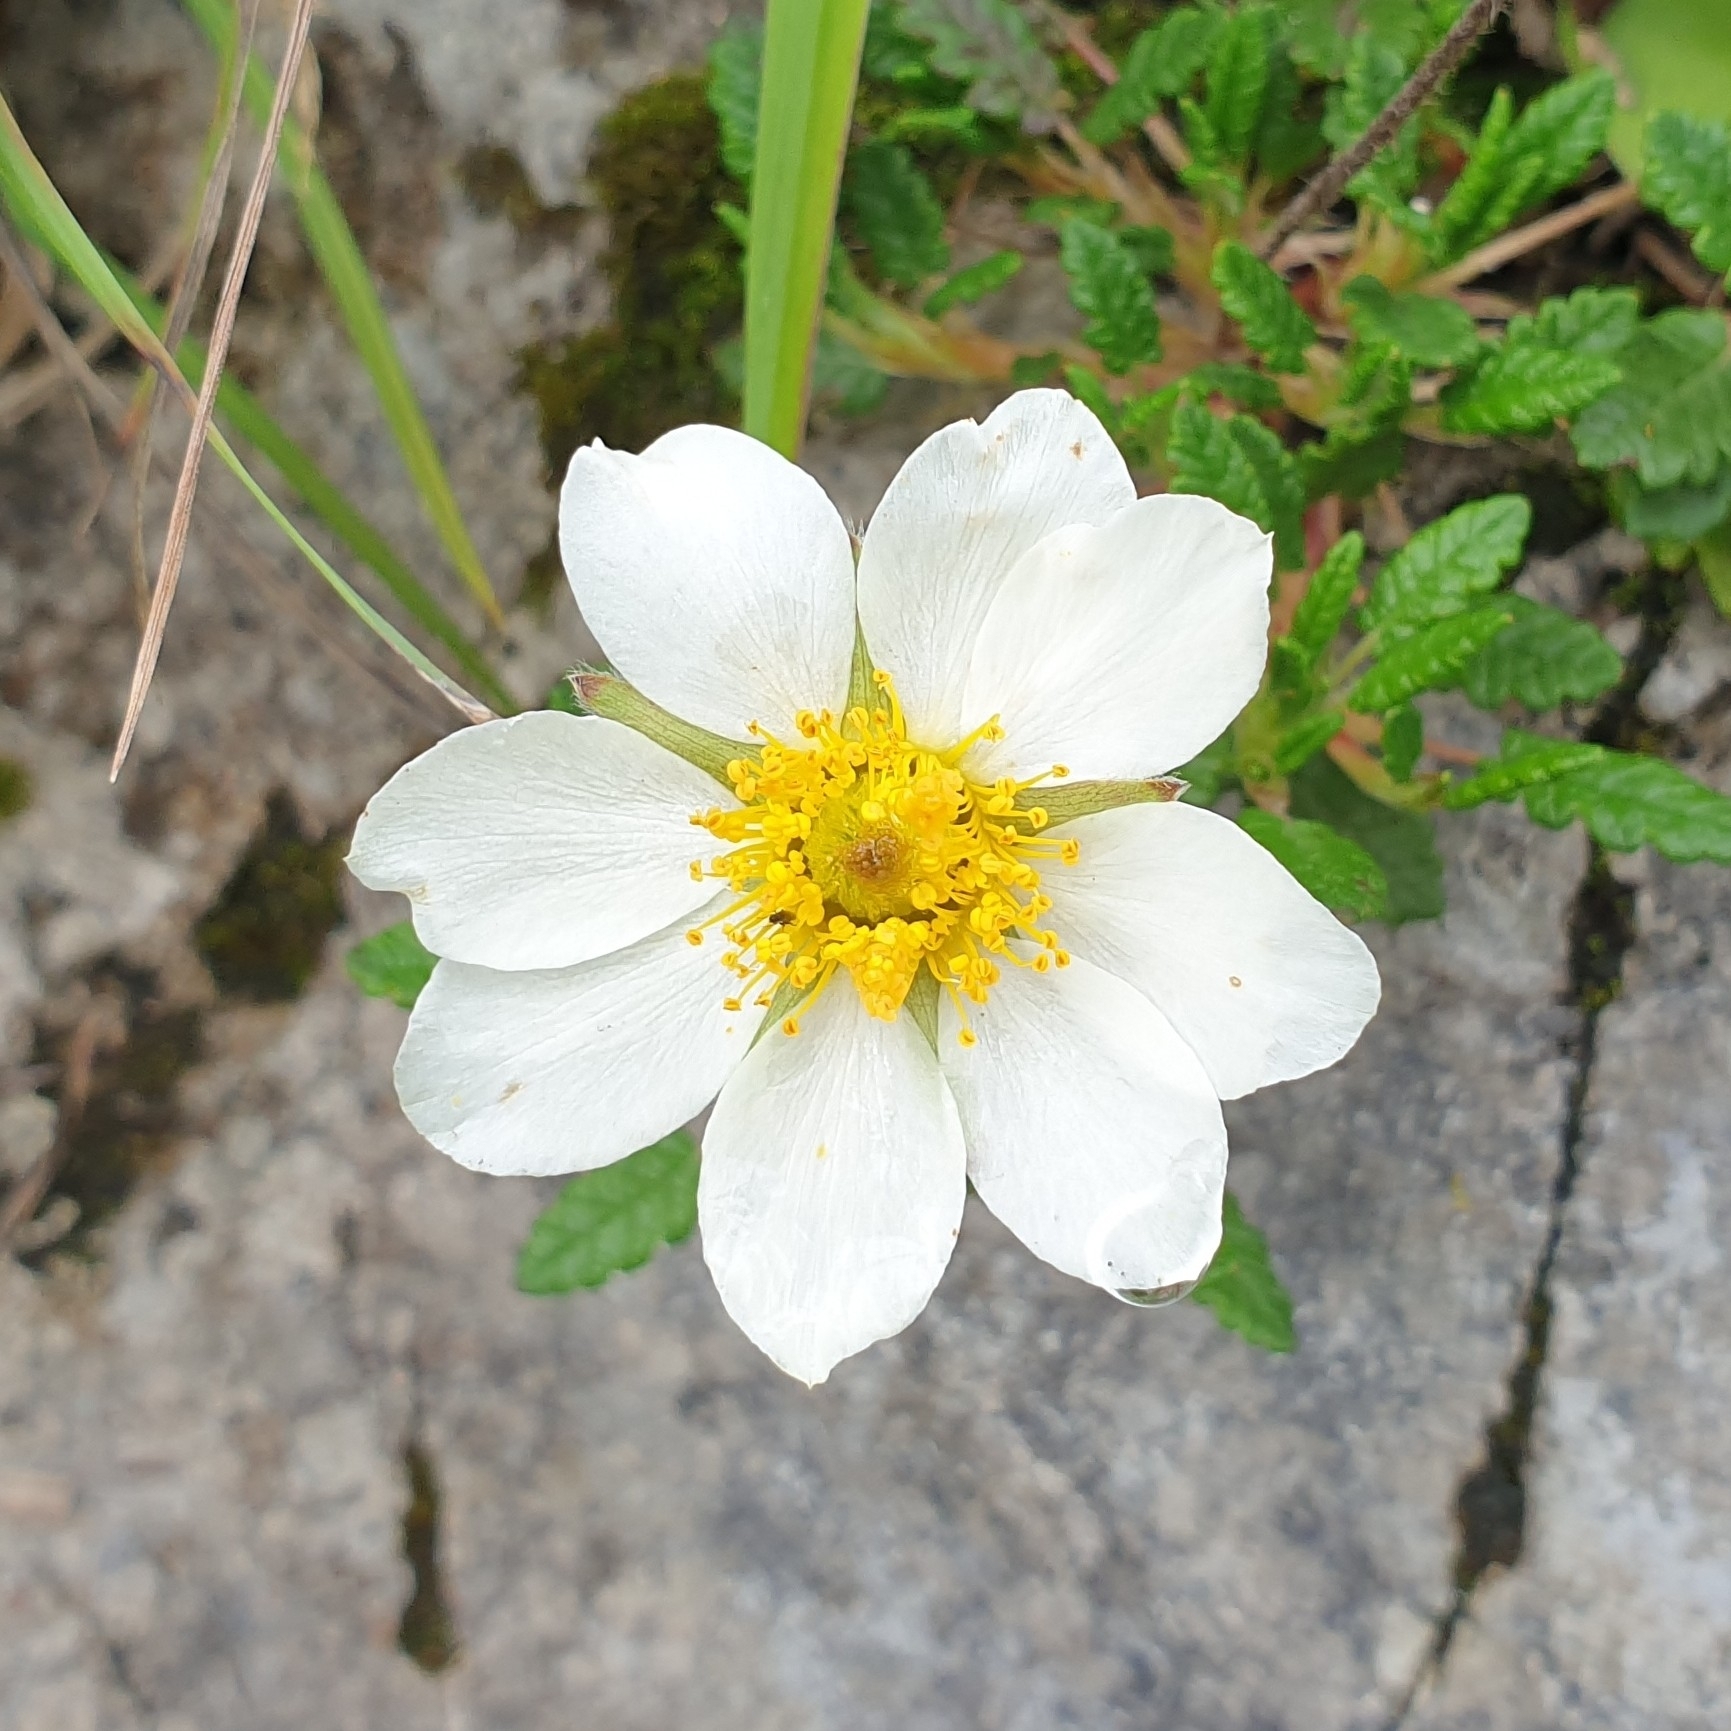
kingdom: Plantae
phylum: Tracheophyta
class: Magnoliopsida
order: Rosales
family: Rosaceae
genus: Dryas
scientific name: Dryas octopetala
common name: Eight-petal mountain-avens
